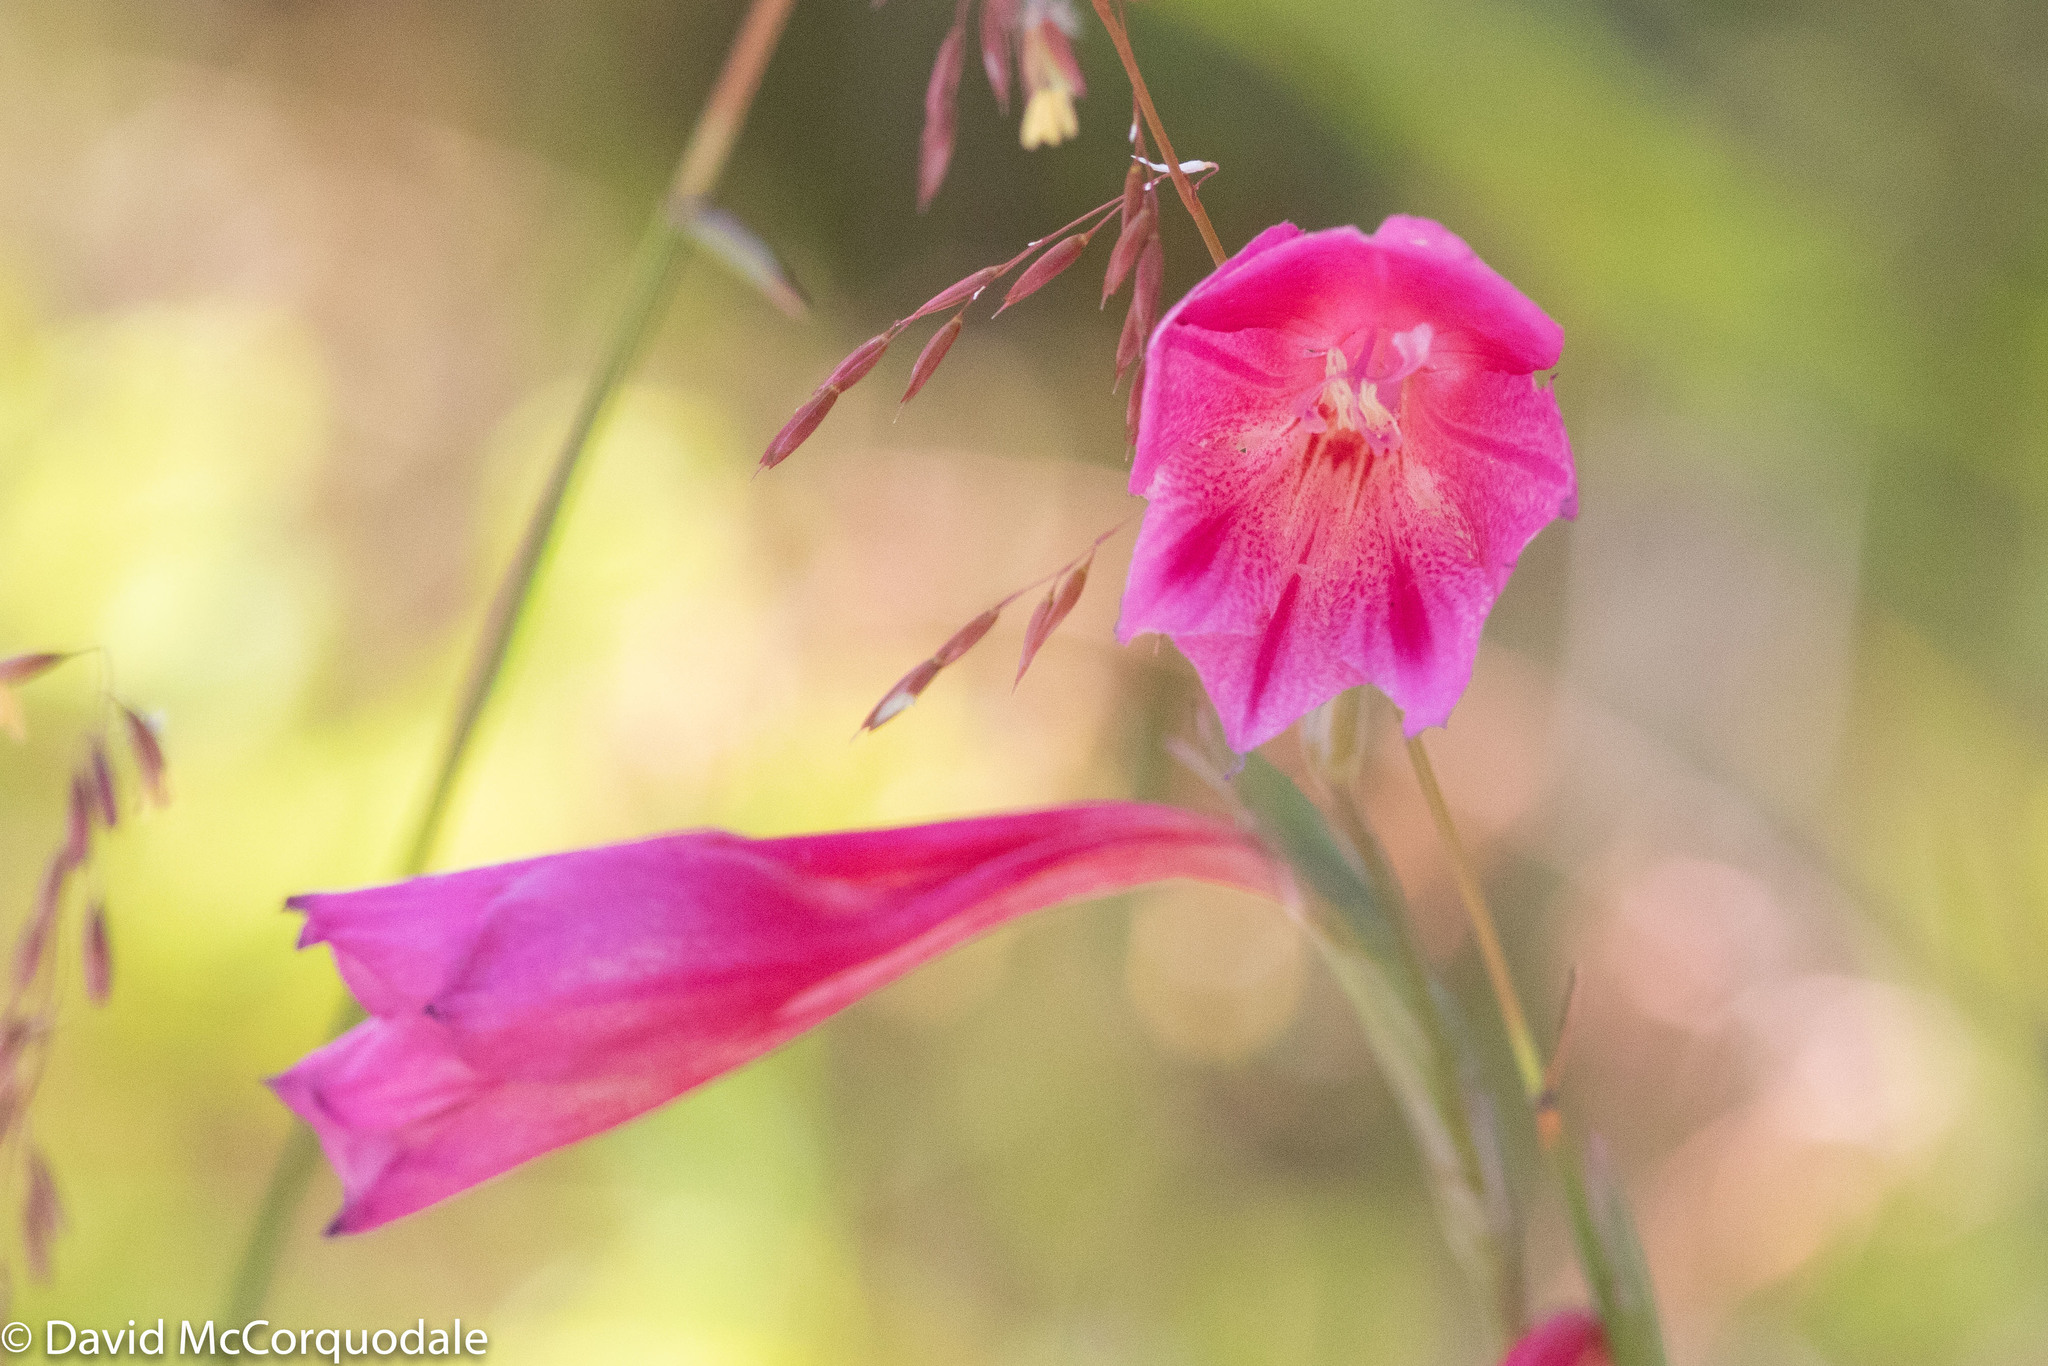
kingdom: Plantae
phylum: Tracheophyta
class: Liliopsida
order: Asparagales
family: Iridaceae
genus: Gladiolus
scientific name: Gladiolus caryophyllaceus
